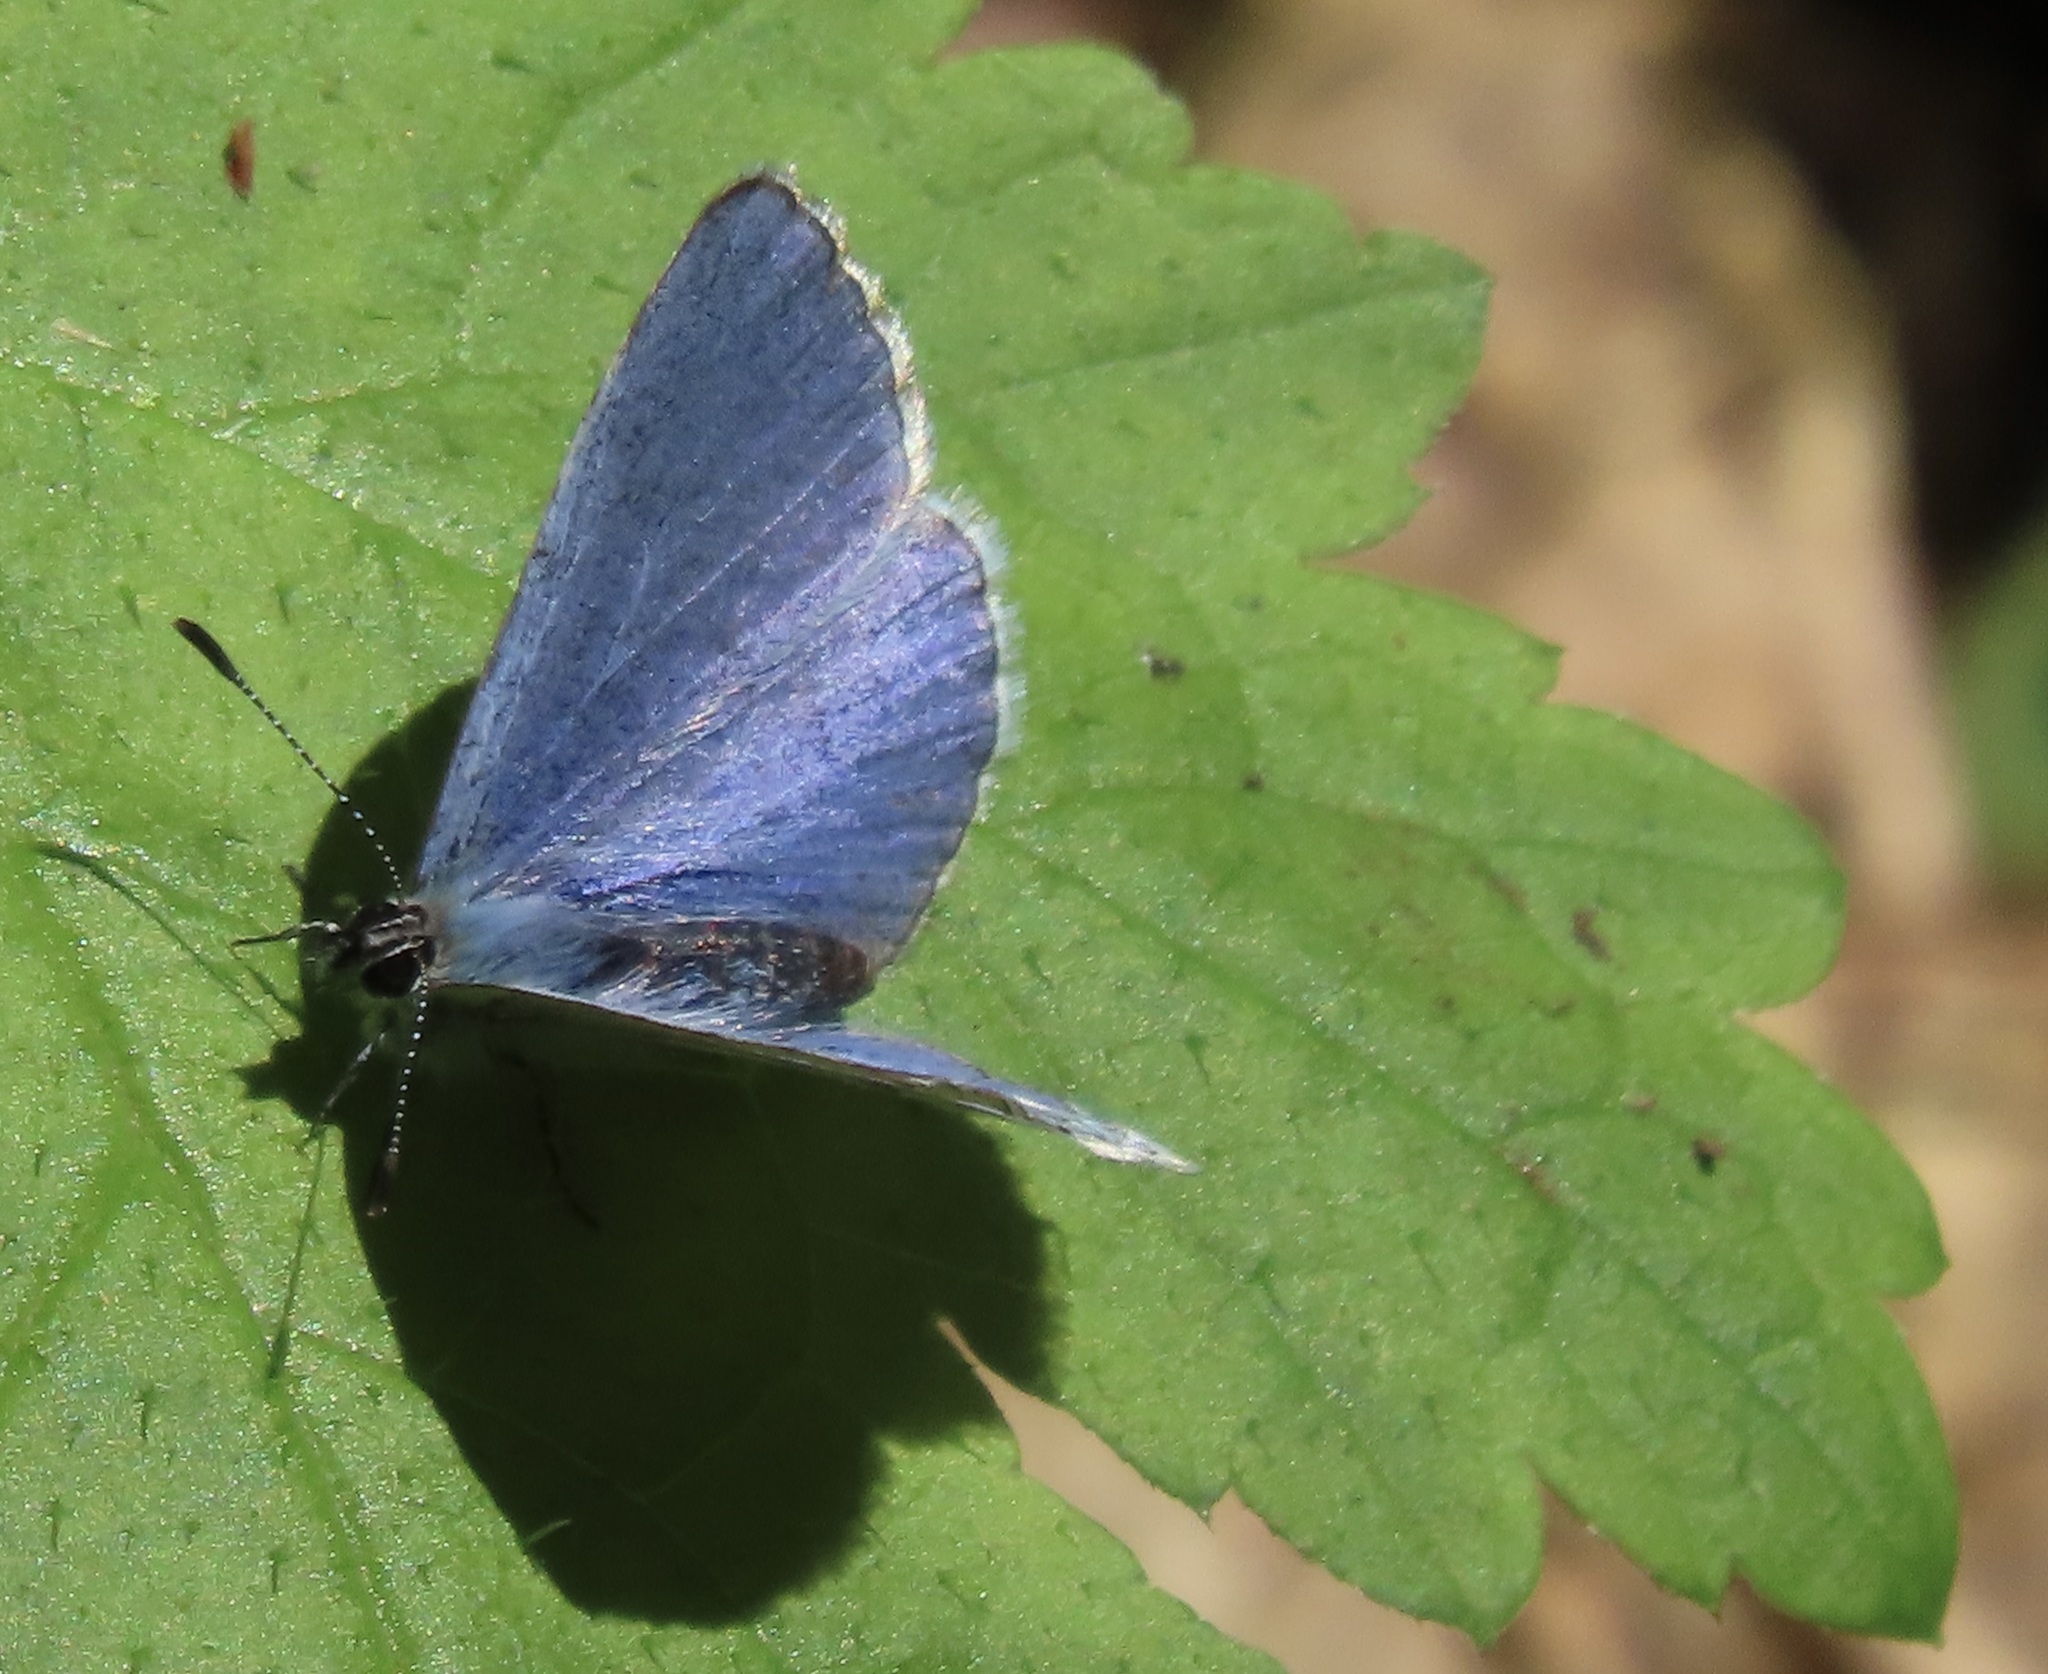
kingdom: Animalia
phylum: Arthropoda
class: Insecta
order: Lepidoptera
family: Lycaenidae
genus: Celastrina
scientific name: Celastrina ladon
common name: Spring azure
